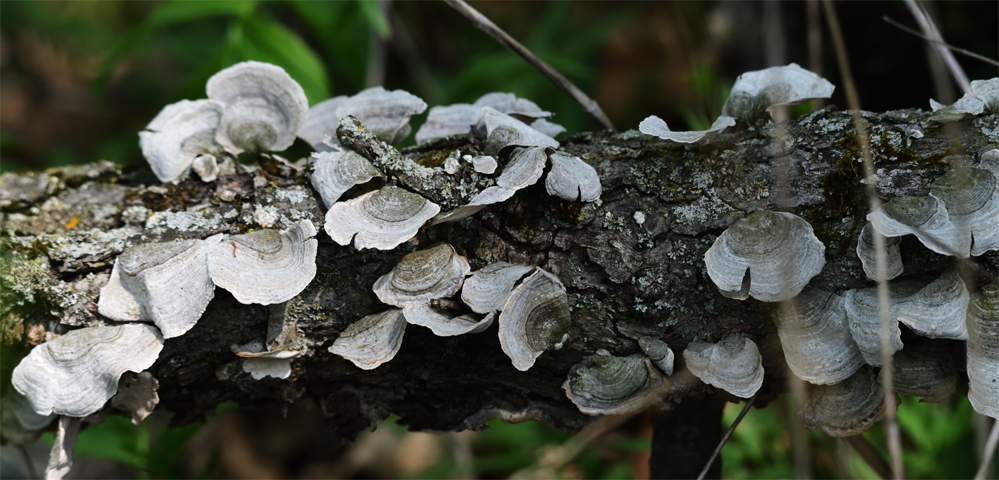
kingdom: Fungi
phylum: Basidiomycota
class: Agaricomycetes
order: Russulales
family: Stereaceae
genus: Stereum
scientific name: Stereum ostrea
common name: False turkeytail
